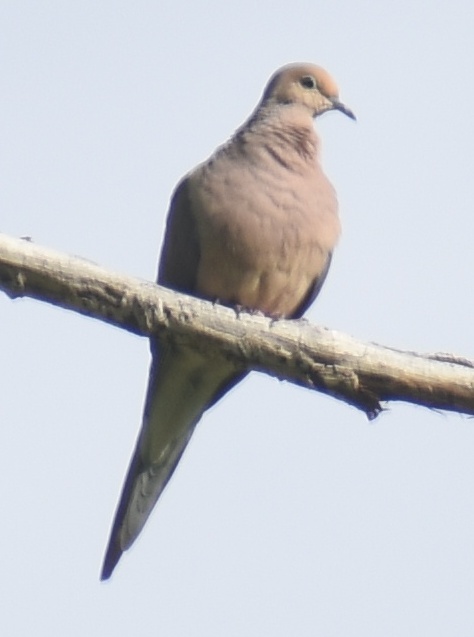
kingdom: Animalia
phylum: Chordata
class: Aves
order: Columbiformes
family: Columbidae
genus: Zenaida
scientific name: Zenaida macroura
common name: Mourning dove
